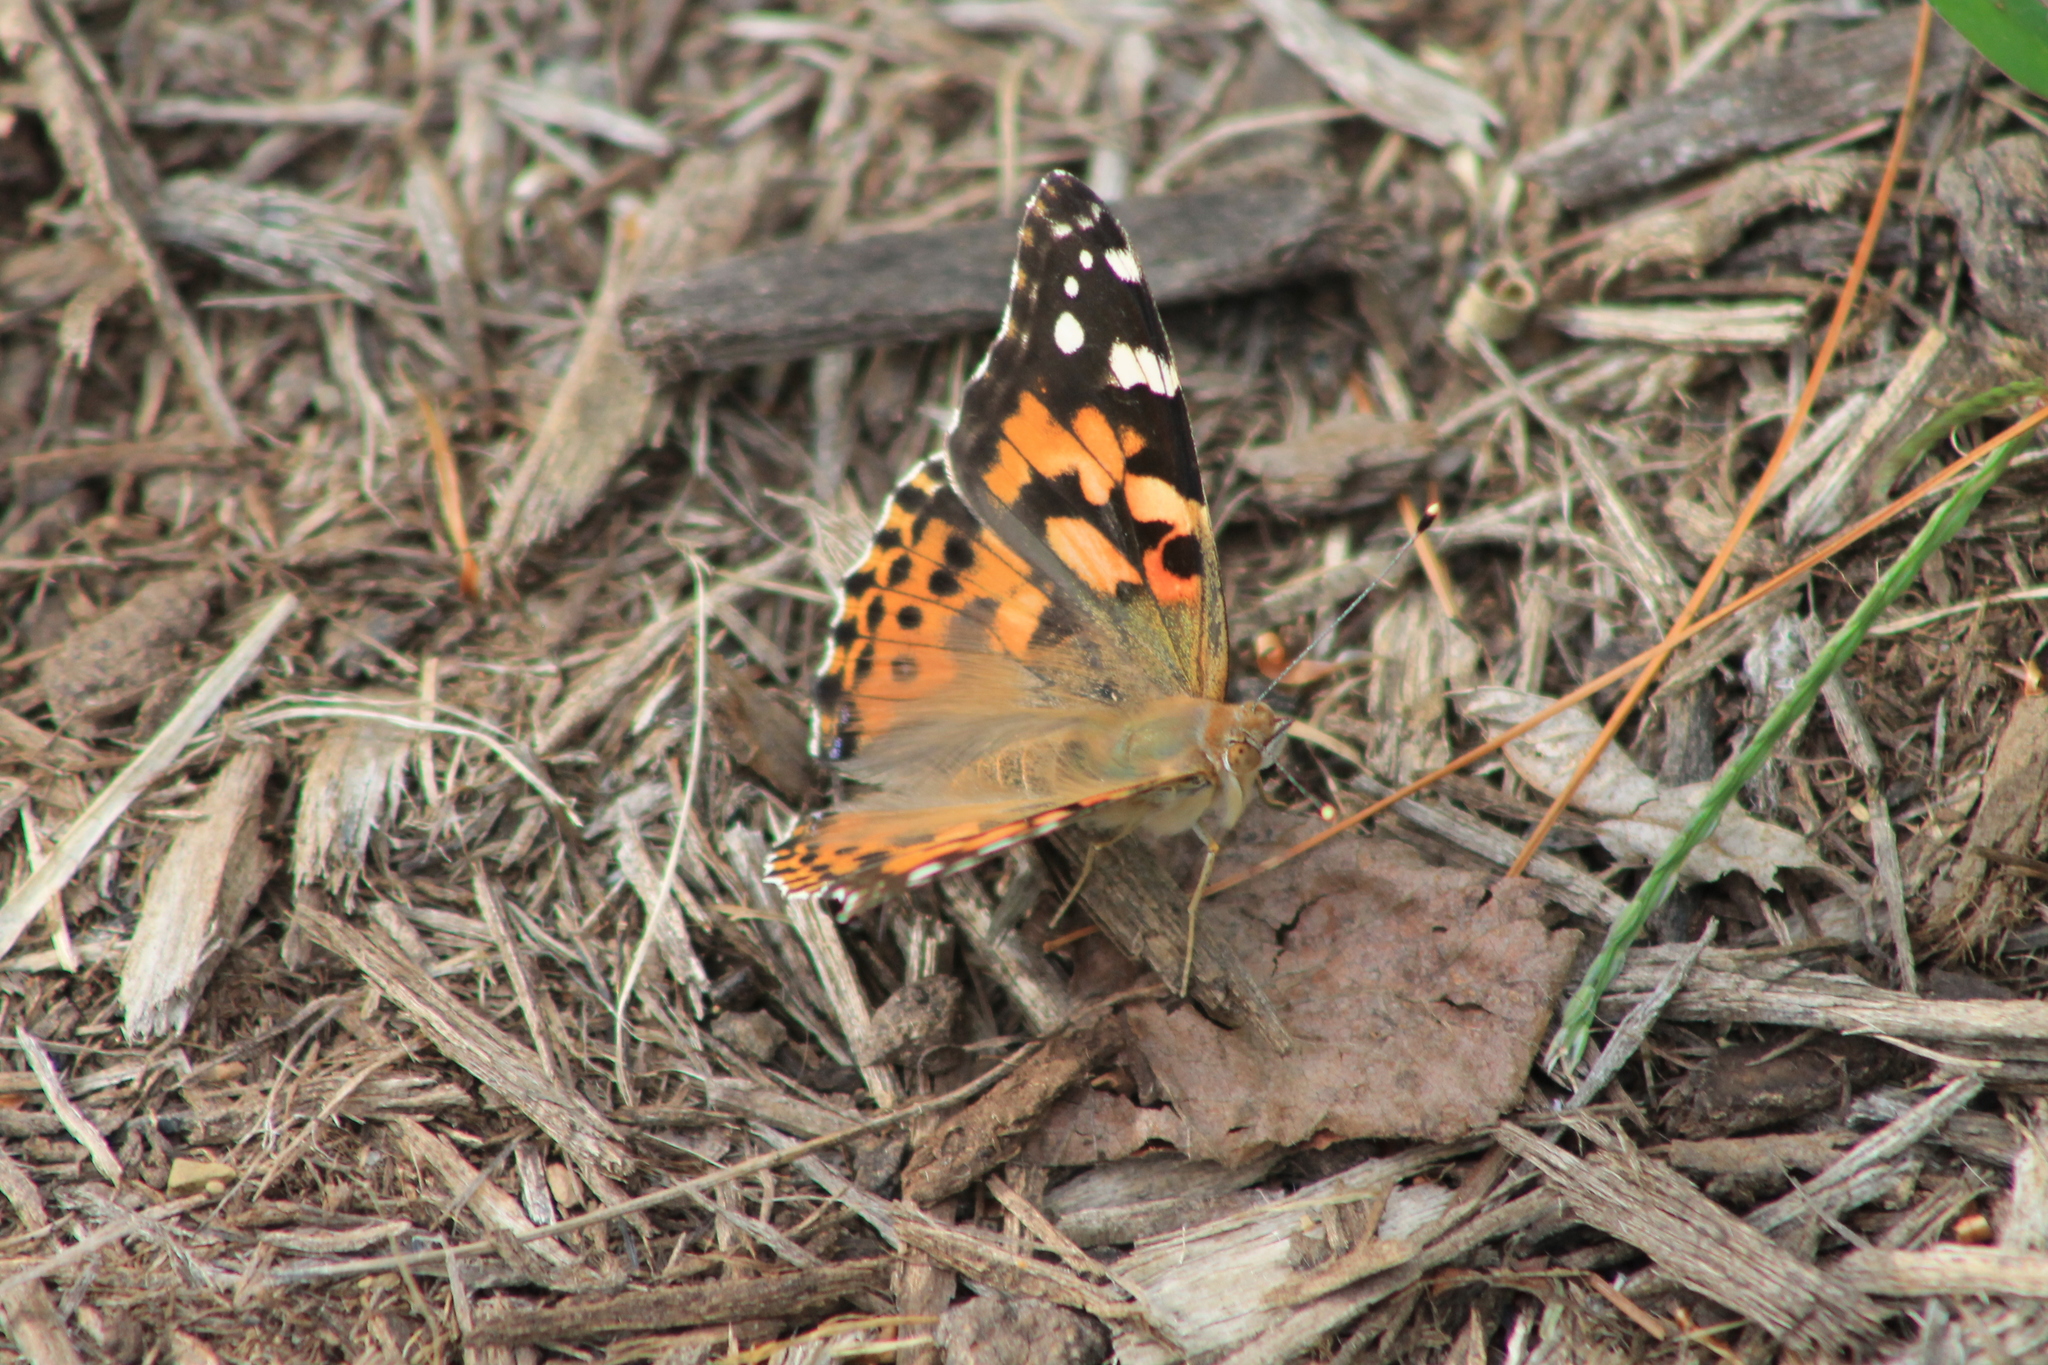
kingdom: Animalia
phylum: Arthropoda
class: Insecta
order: Lepidoptera
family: Nymphalidae
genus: Vanessa
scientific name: Vanessa cardui
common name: Painted lady
